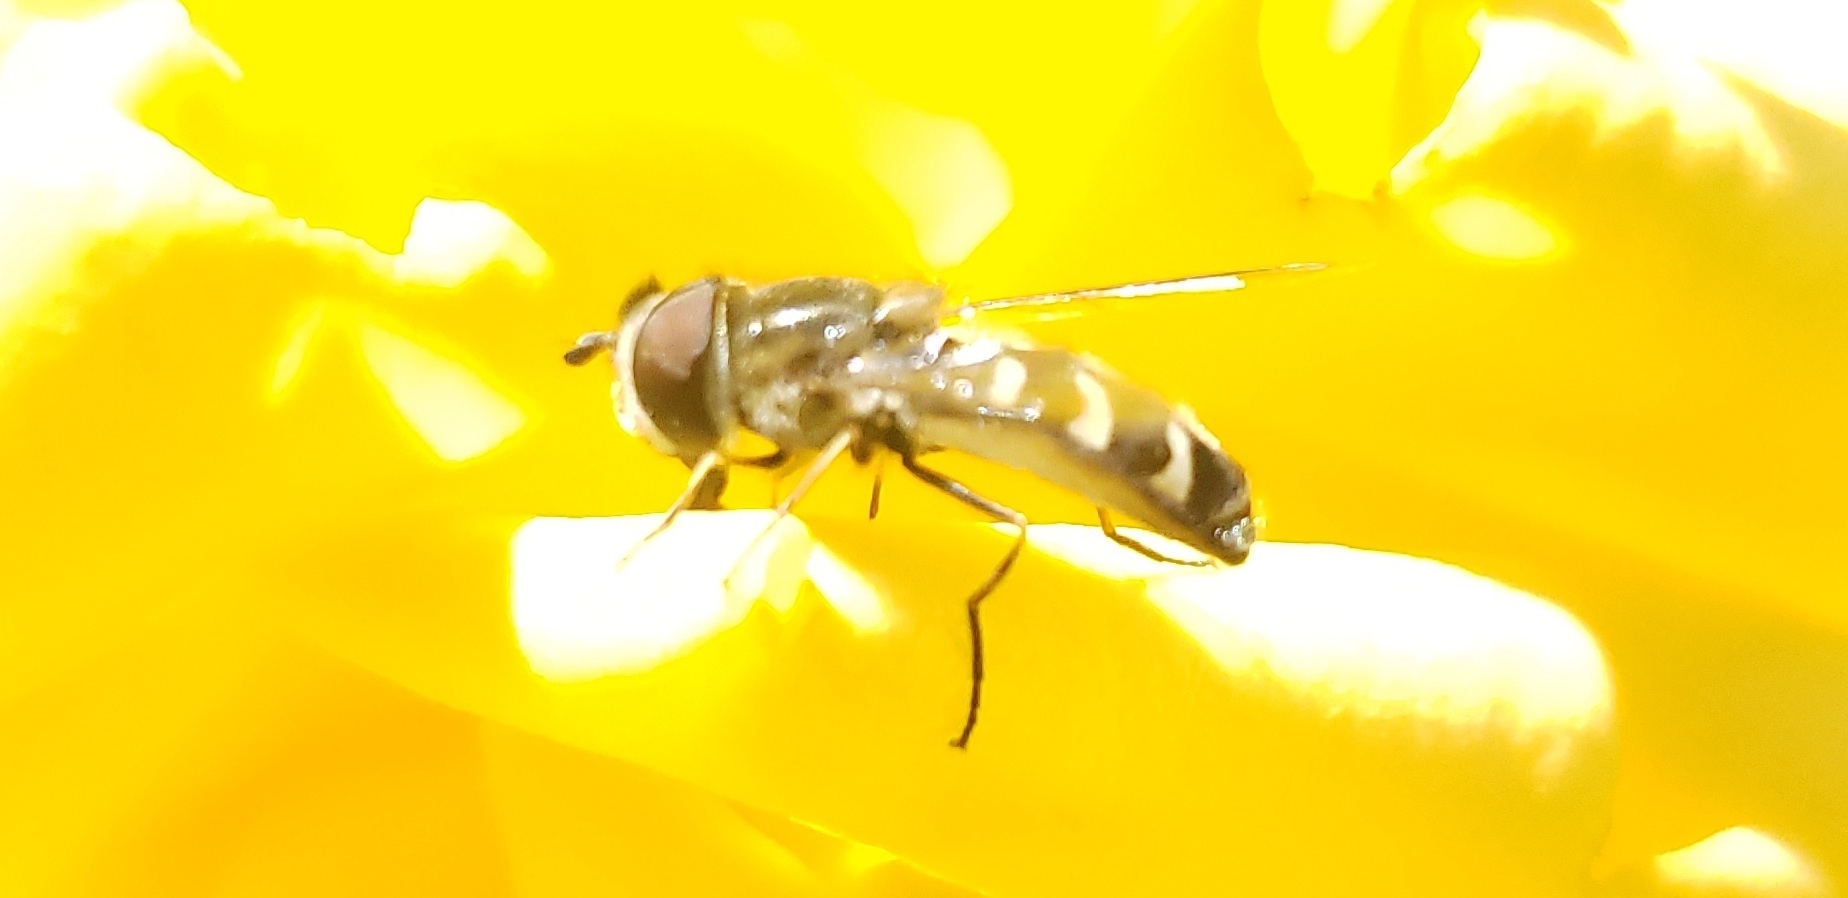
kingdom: Animalia
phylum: Arthropoda
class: Insecta
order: Diptera
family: Syrphidae
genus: Scaeva
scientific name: Scaeva affinis
